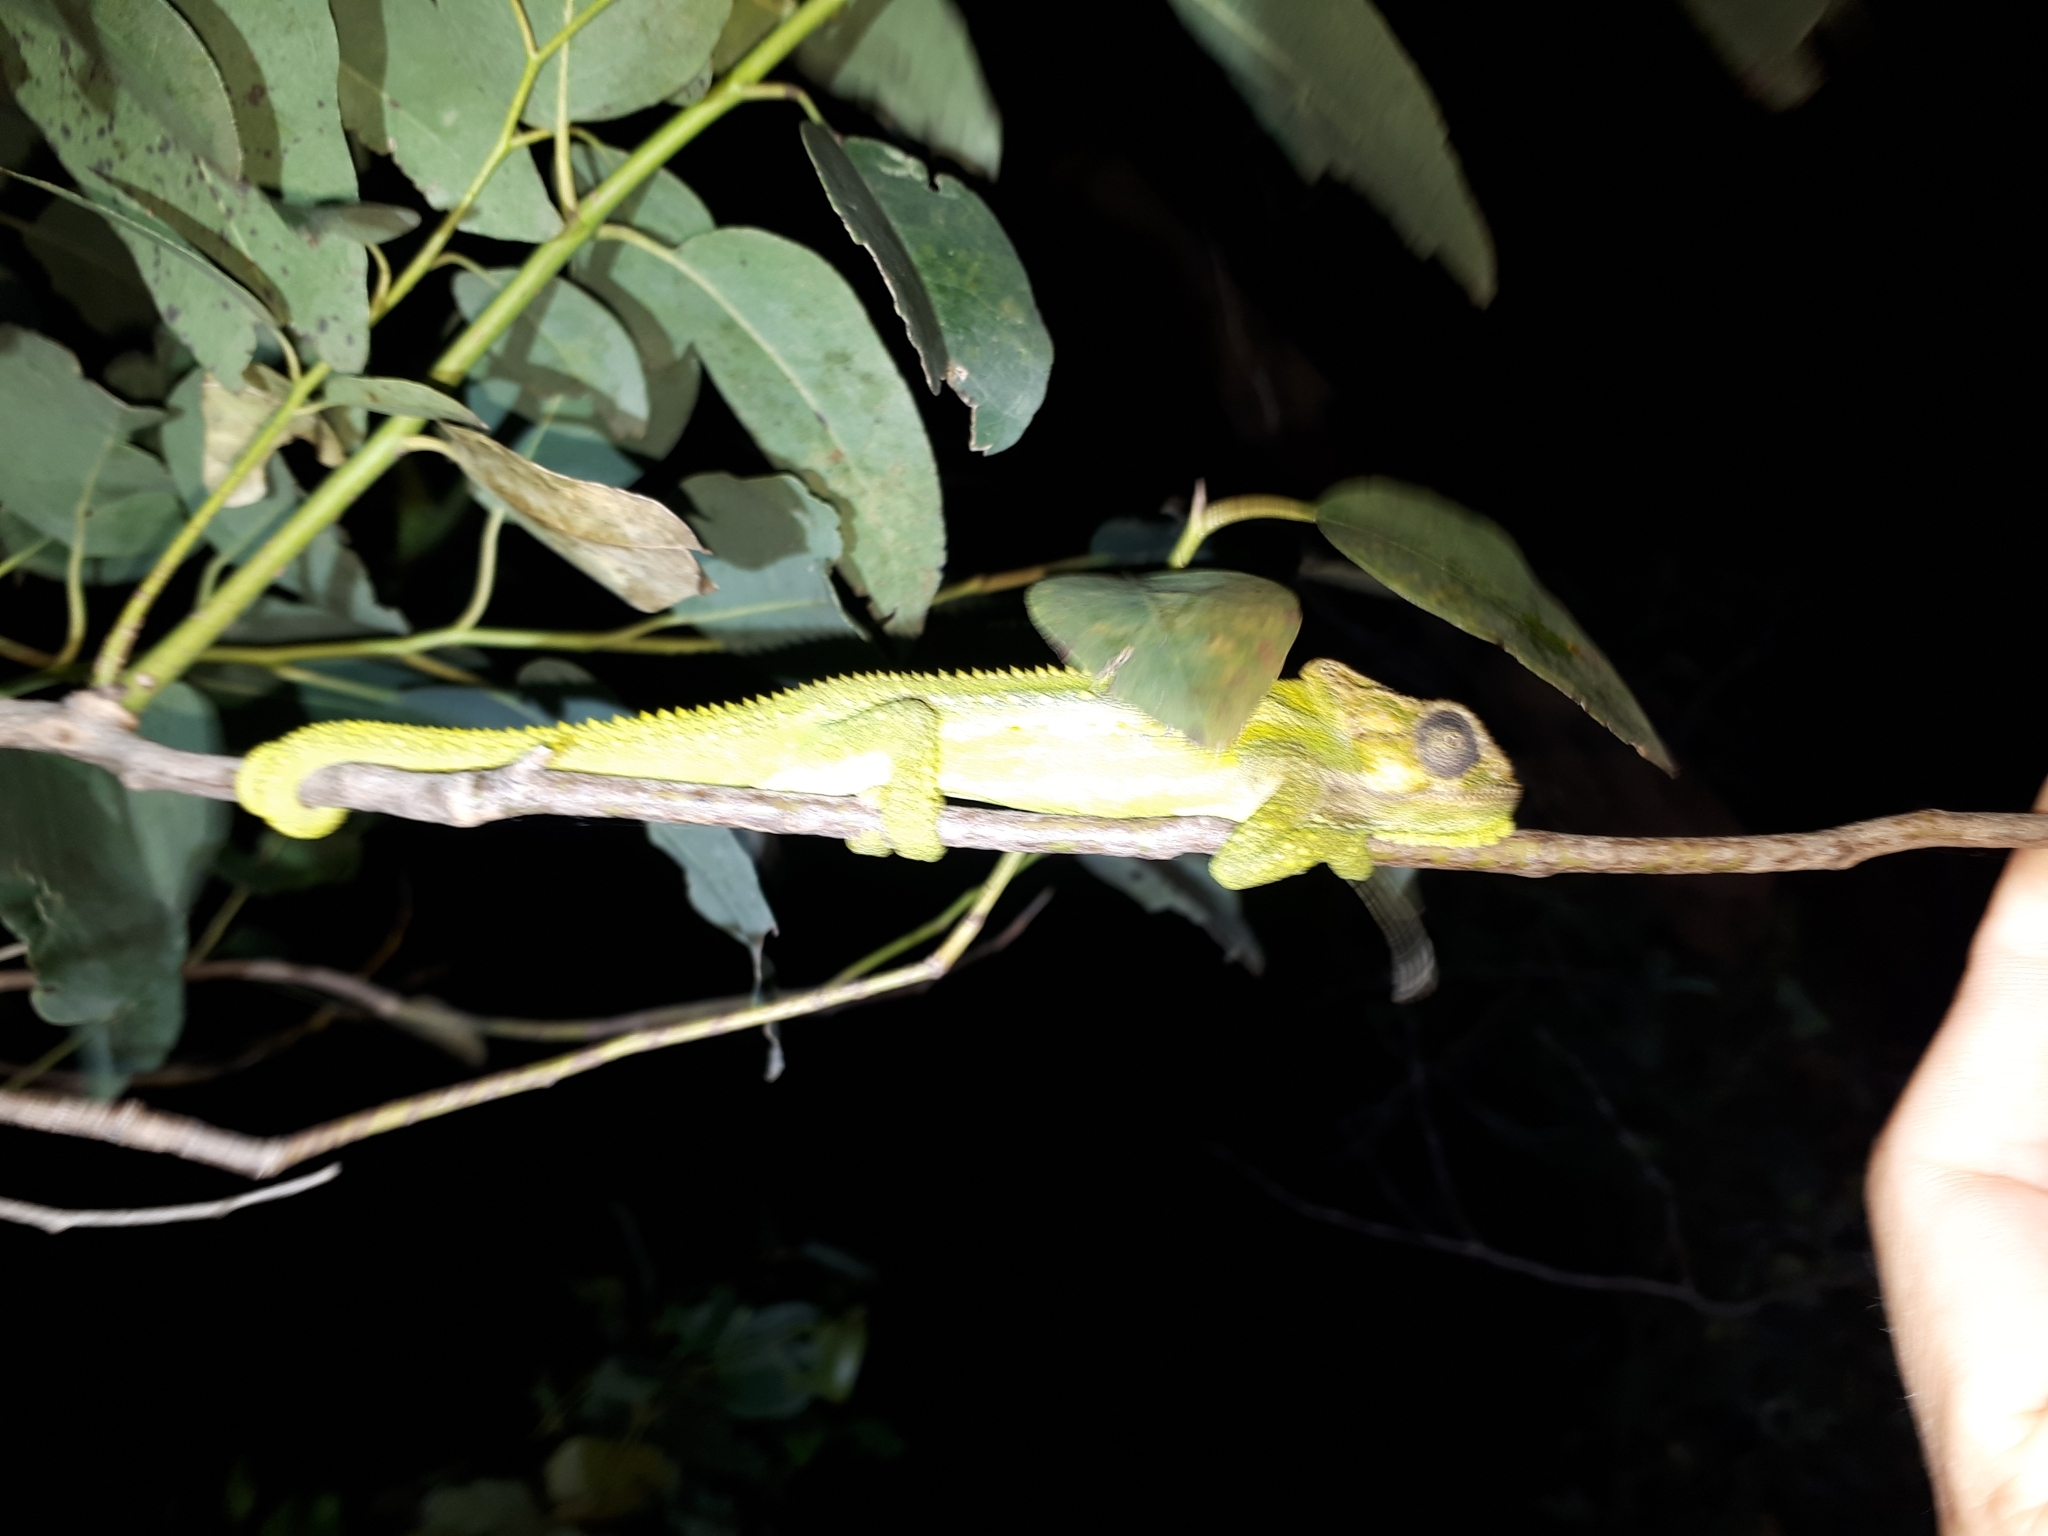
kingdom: Animalia
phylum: Chordata
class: Squamata
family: Chamaeleonidae
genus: Bradypodion
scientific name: Bradypodion pumilum
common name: Cape dwarf chameleon
